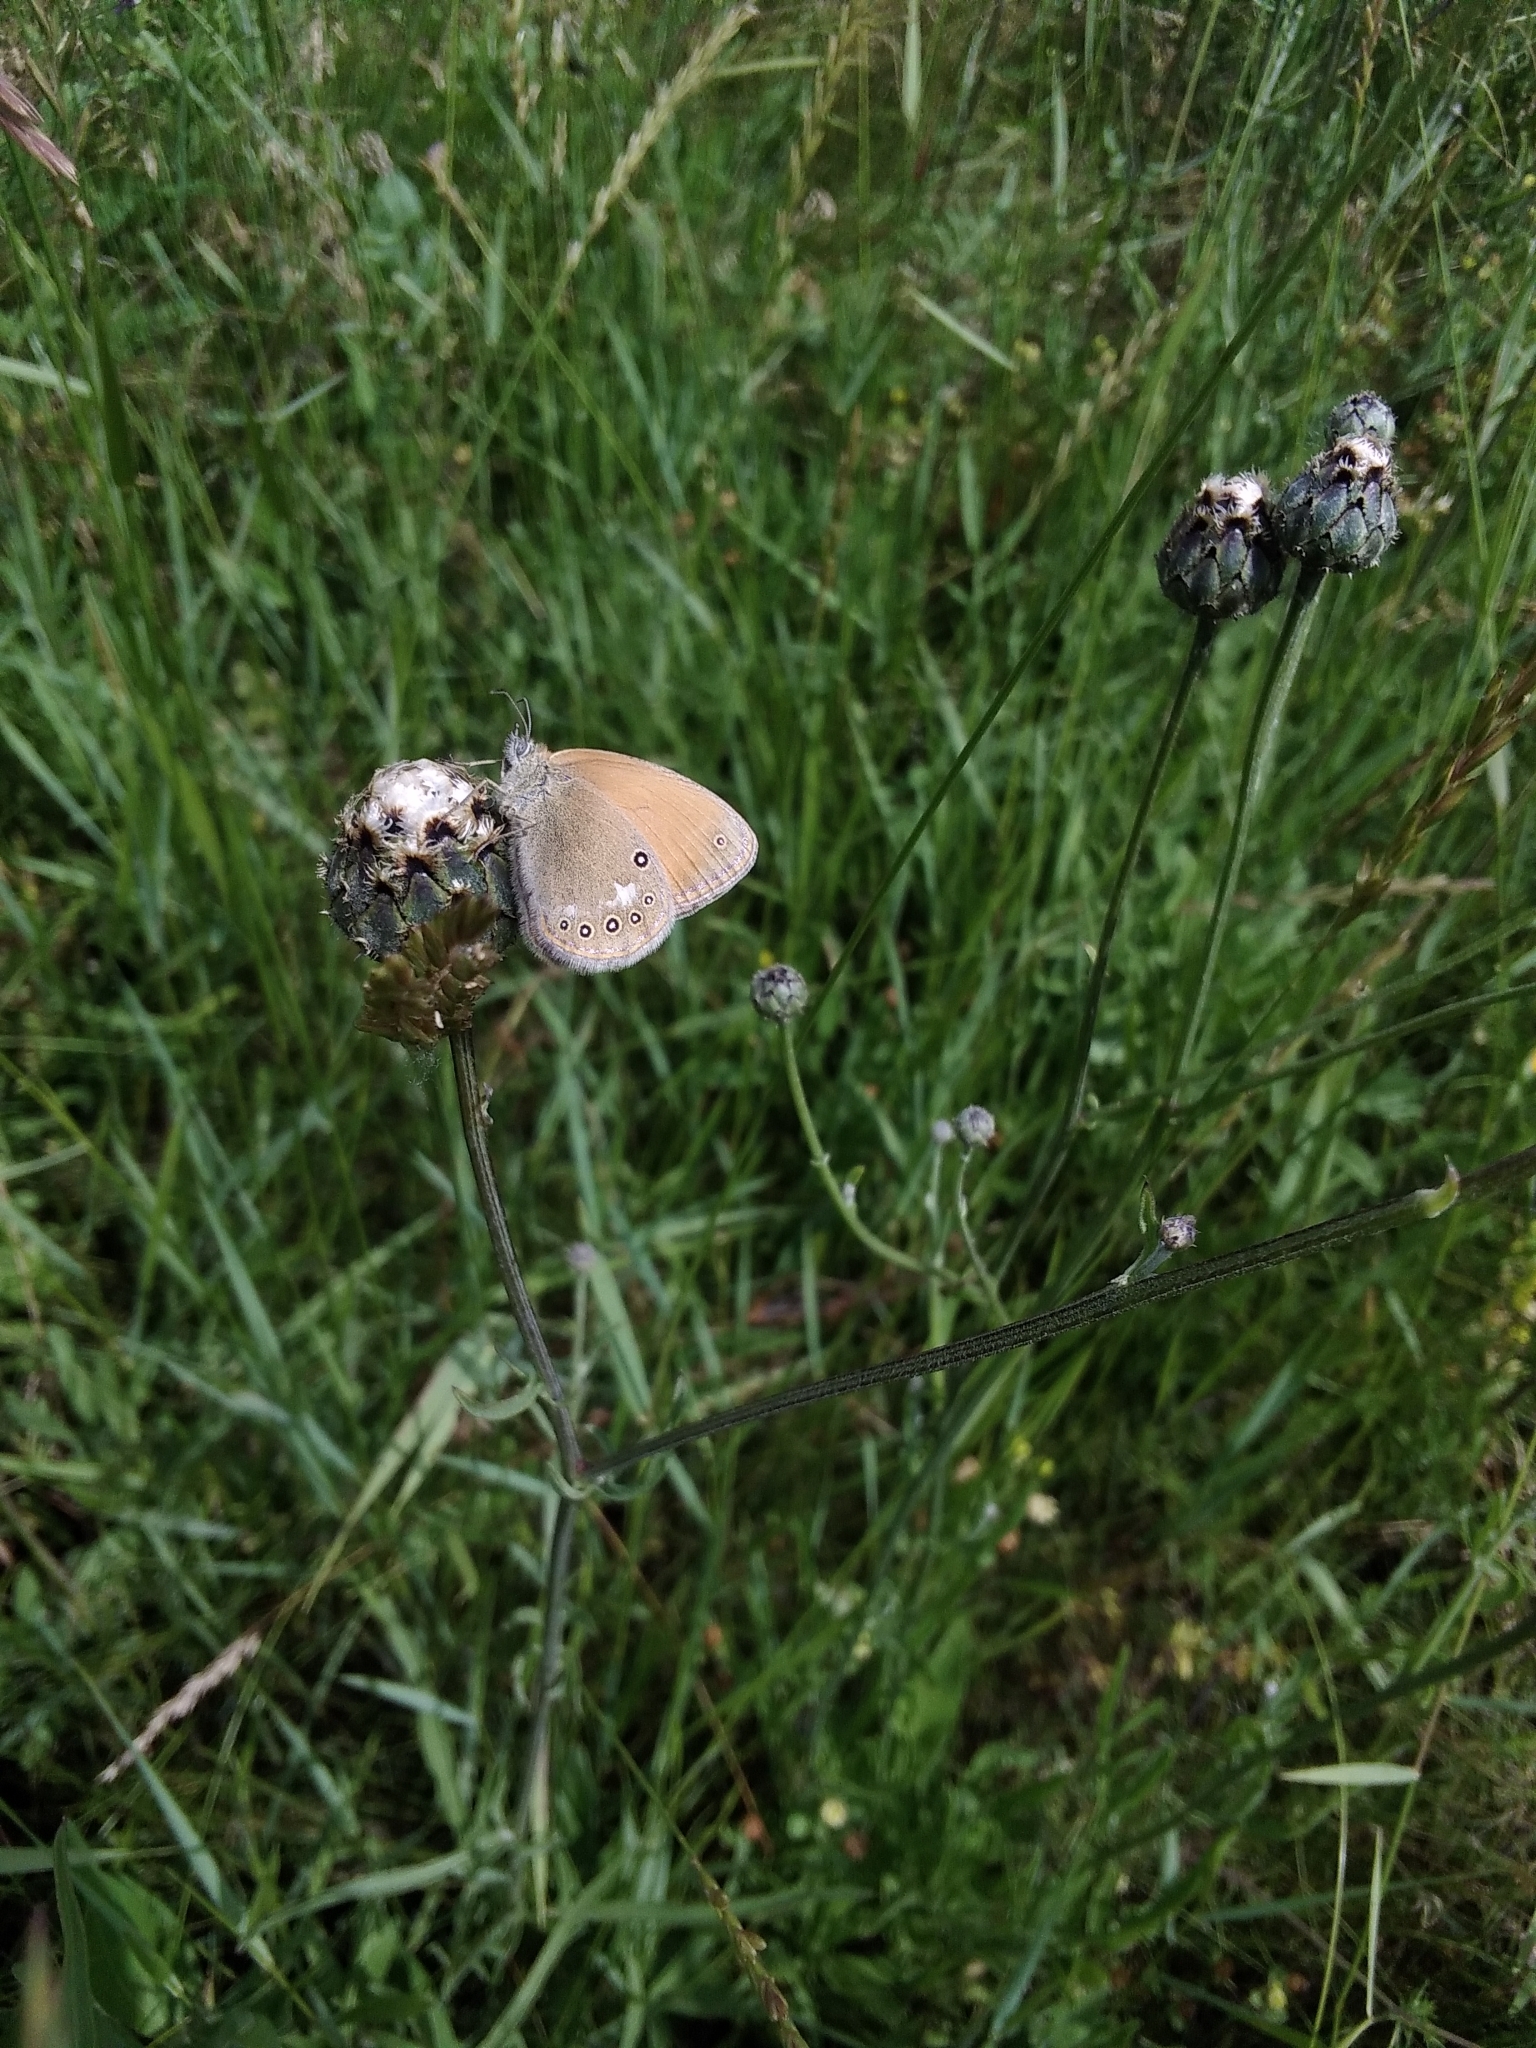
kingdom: Animalia
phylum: Arthropoda
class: Insecta
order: Lepidoptera
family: Nymphalidae
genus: Coenonympha
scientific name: Coenonympha iphis
